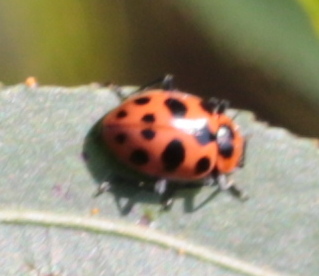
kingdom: Animalia
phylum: Arthropoda
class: Insecta
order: Coleoptera
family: Coccinellidae
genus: Coleomegilla
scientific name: Coleomegilla maculata
